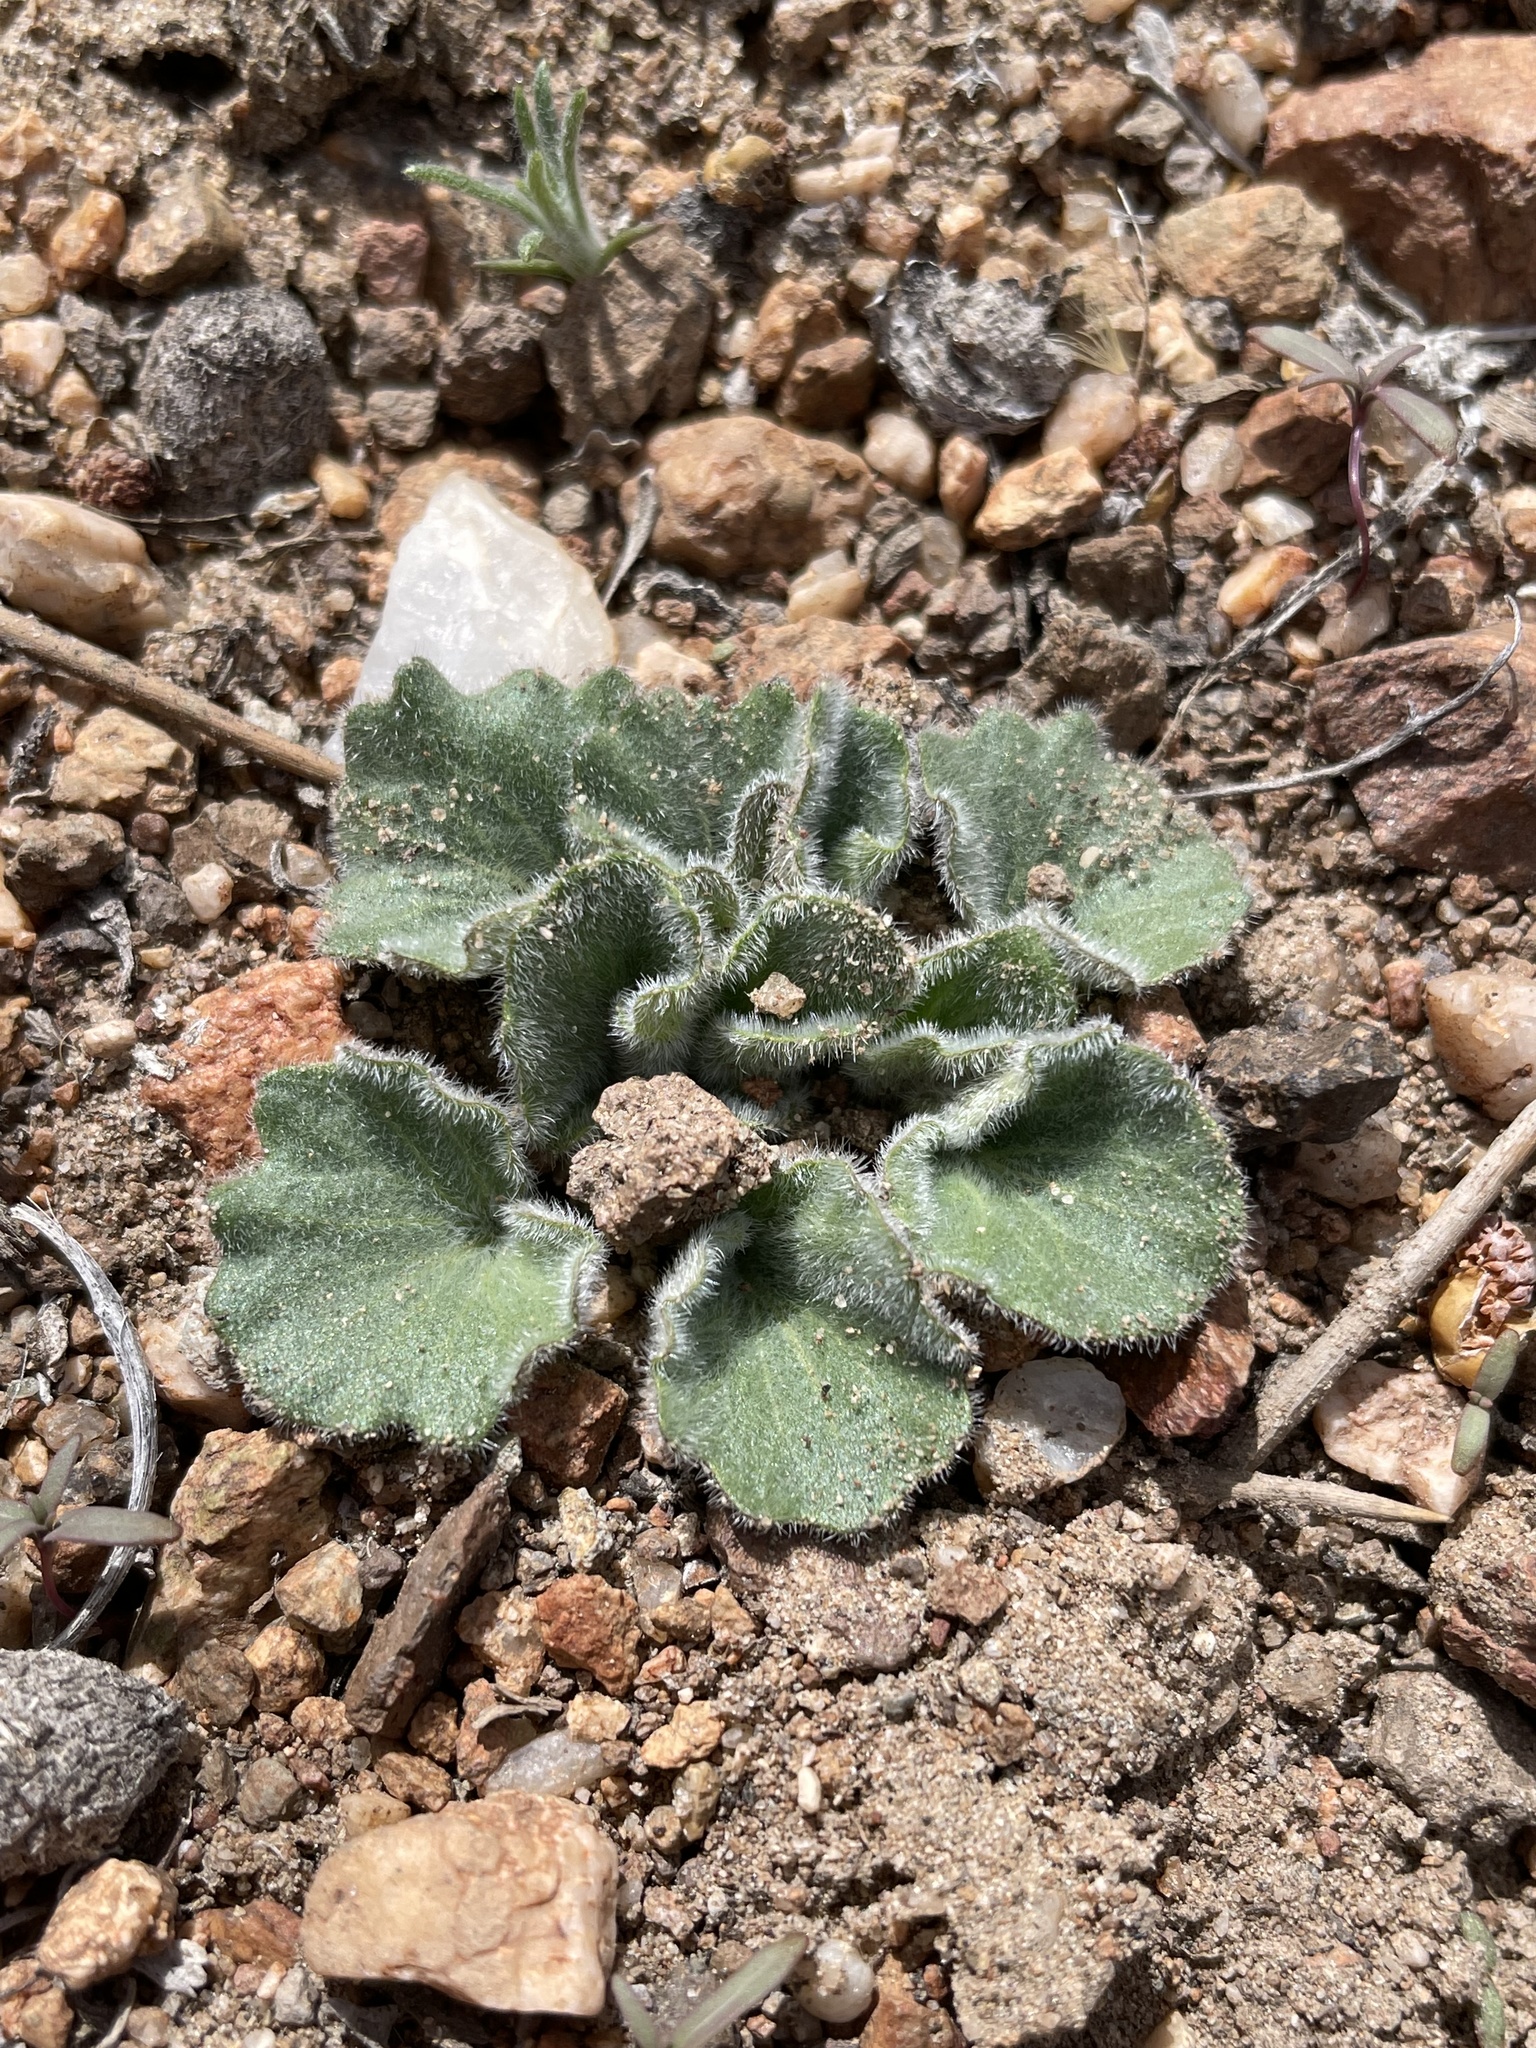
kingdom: Plantae
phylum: Tracheophyta
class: Magnoliopsida
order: Malpighiales
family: Violaceae
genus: Viola
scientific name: Viola aurea
